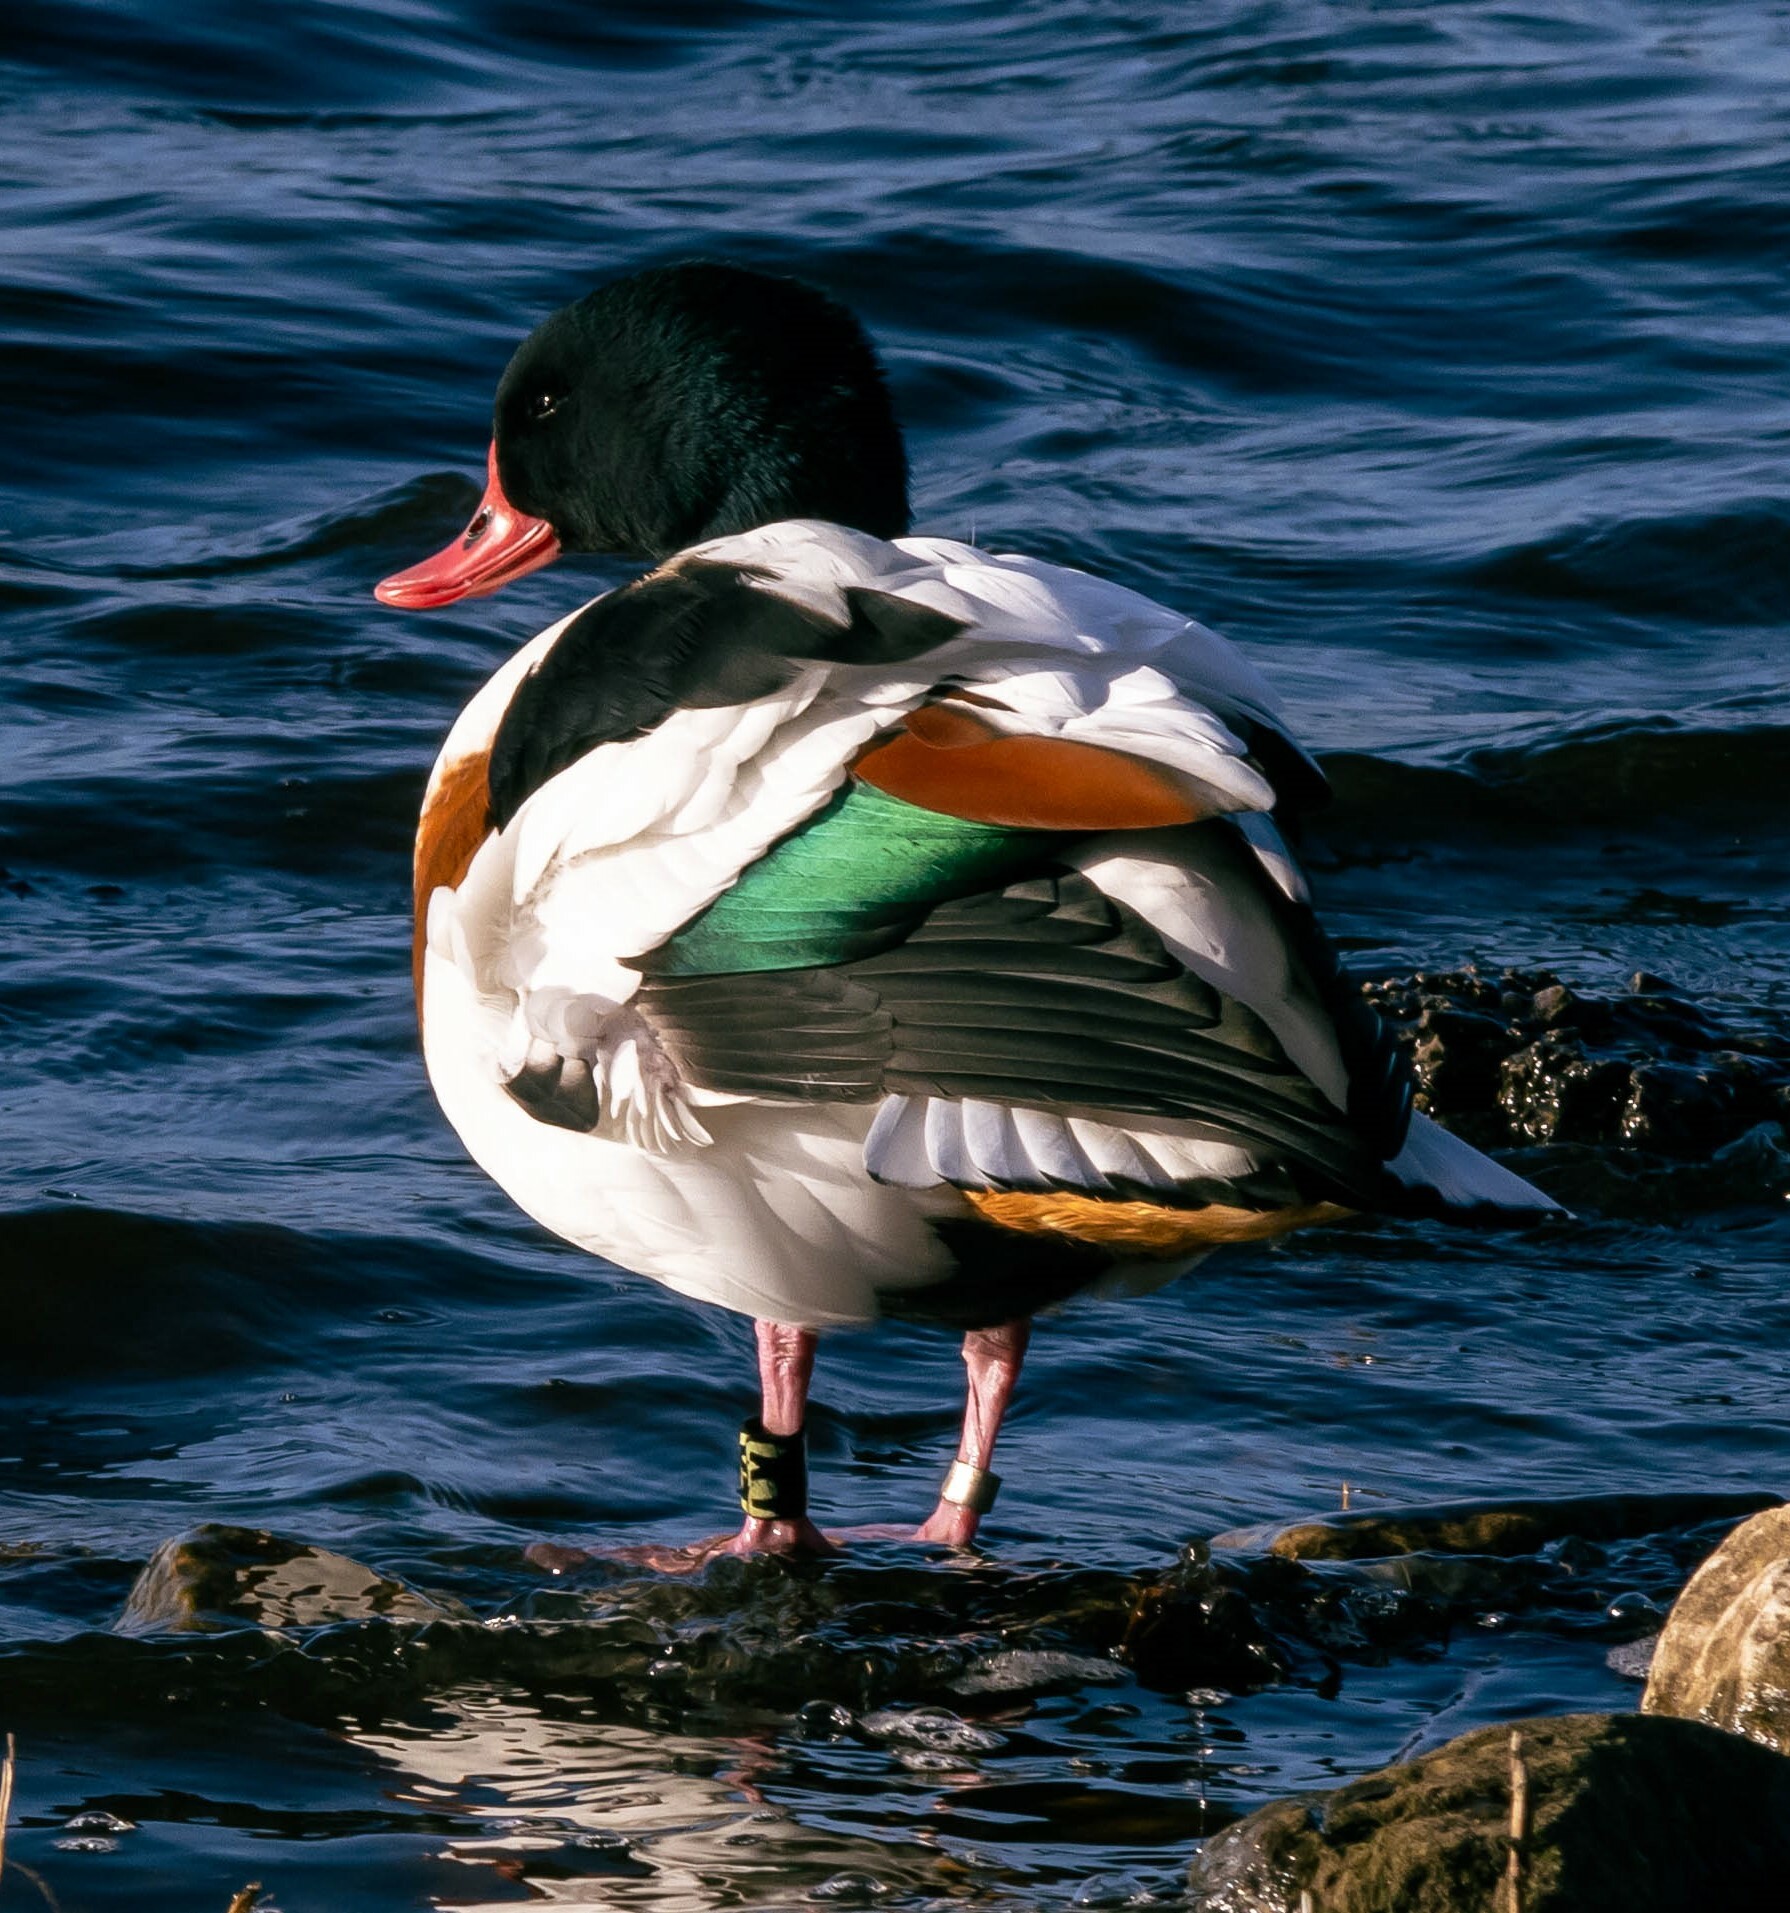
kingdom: Animalia
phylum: Chordata
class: Aves
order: Anseriformes
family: Anatidae
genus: Tadorna
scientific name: Tadorna tadorna
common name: Common shelduck
